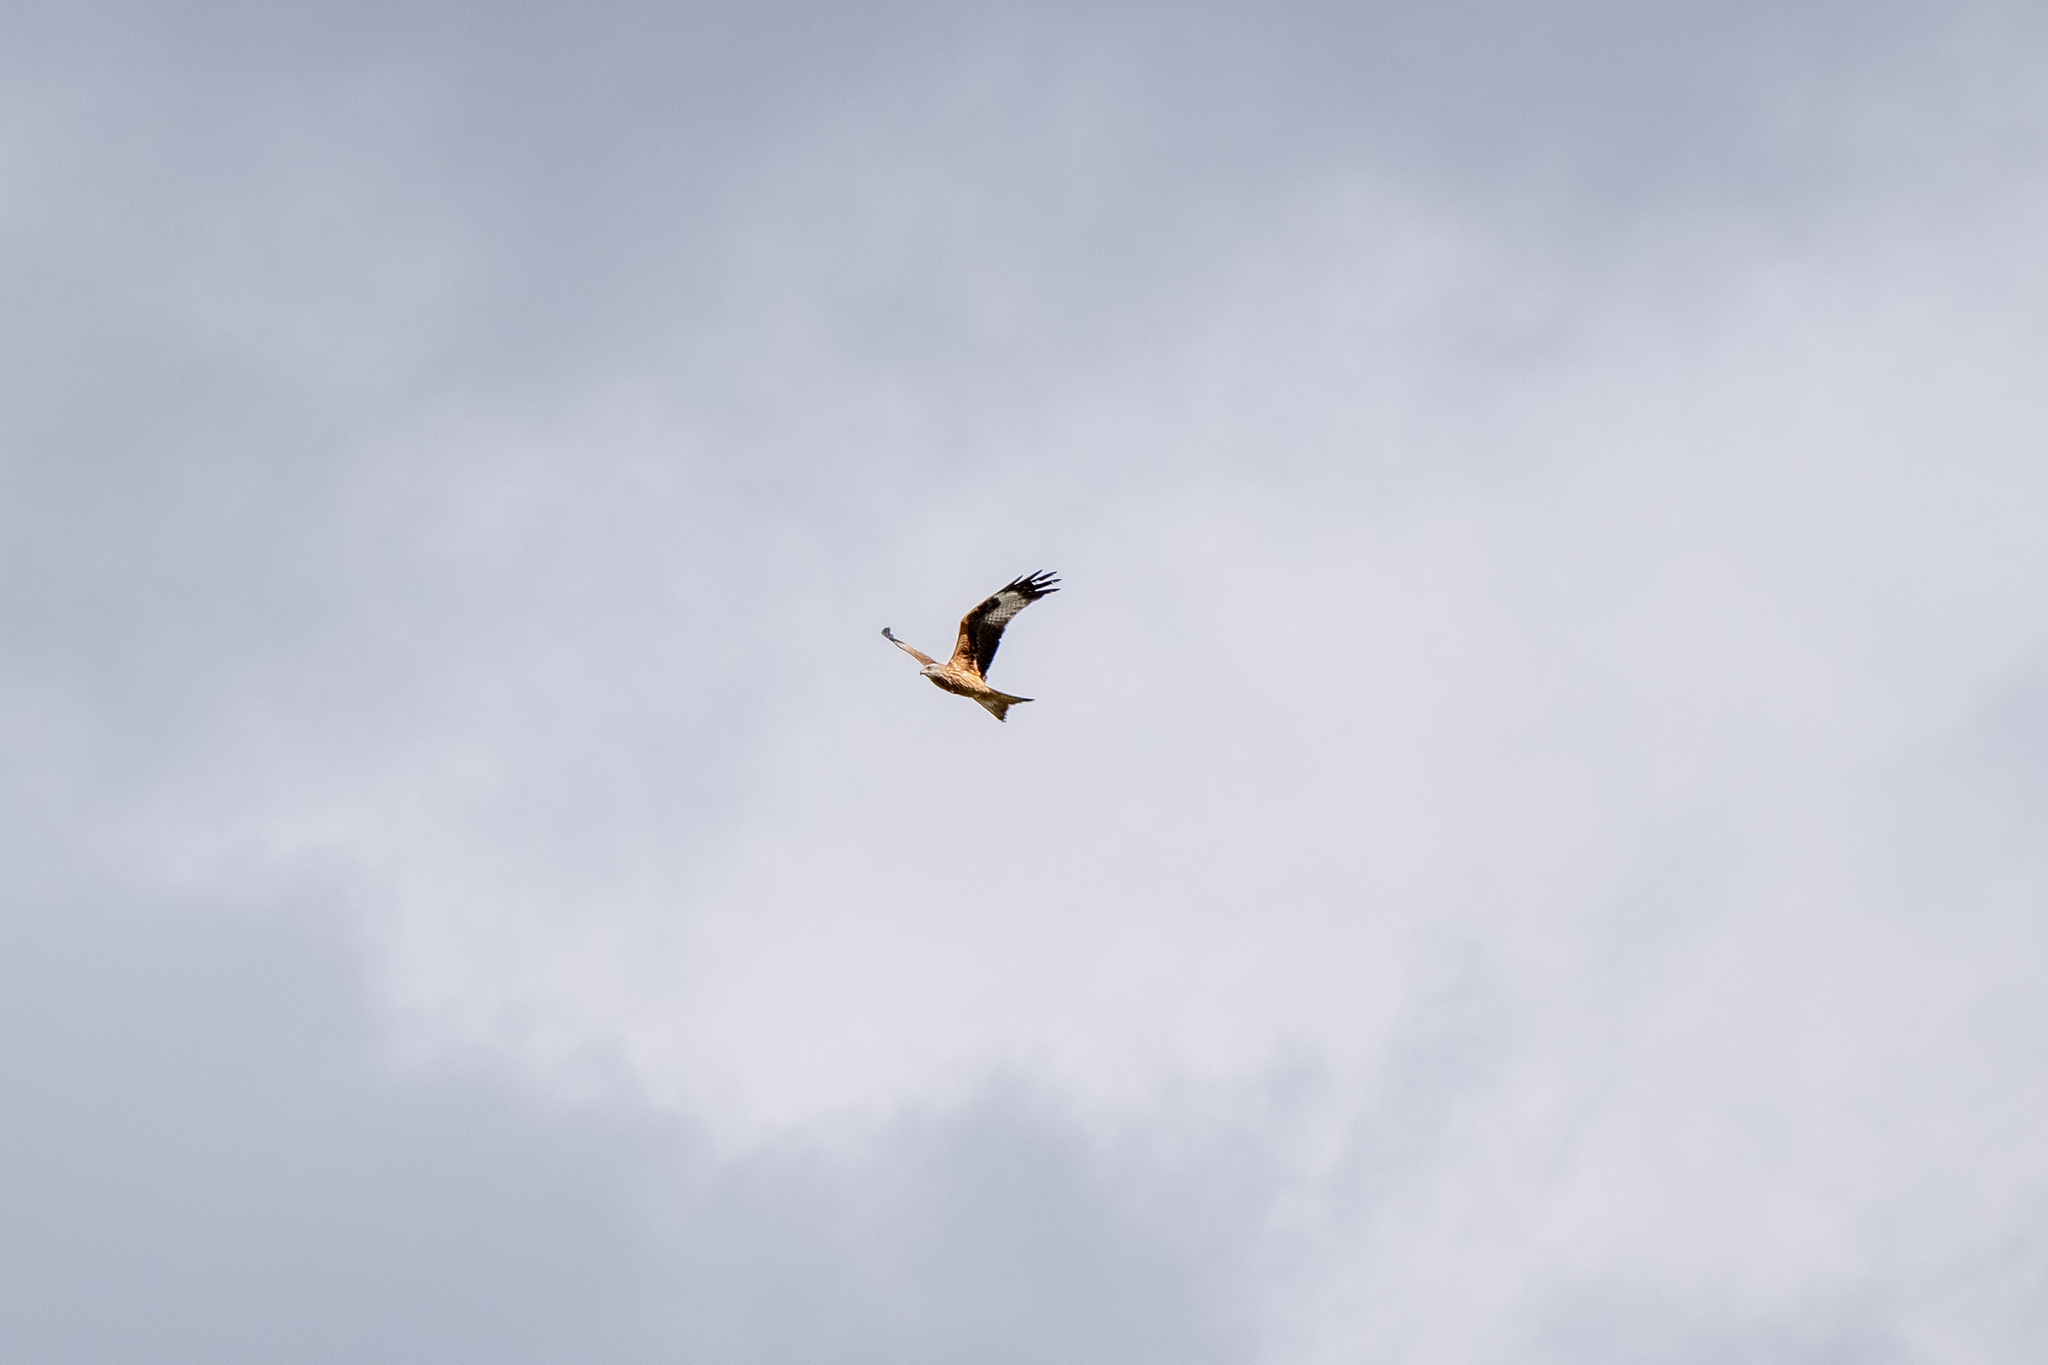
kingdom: Animalia
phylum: Chordata
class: Aves
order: Accipitriformes
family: Accipitridae
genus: Milvus
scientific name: Milvus milvus
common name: Red kite
